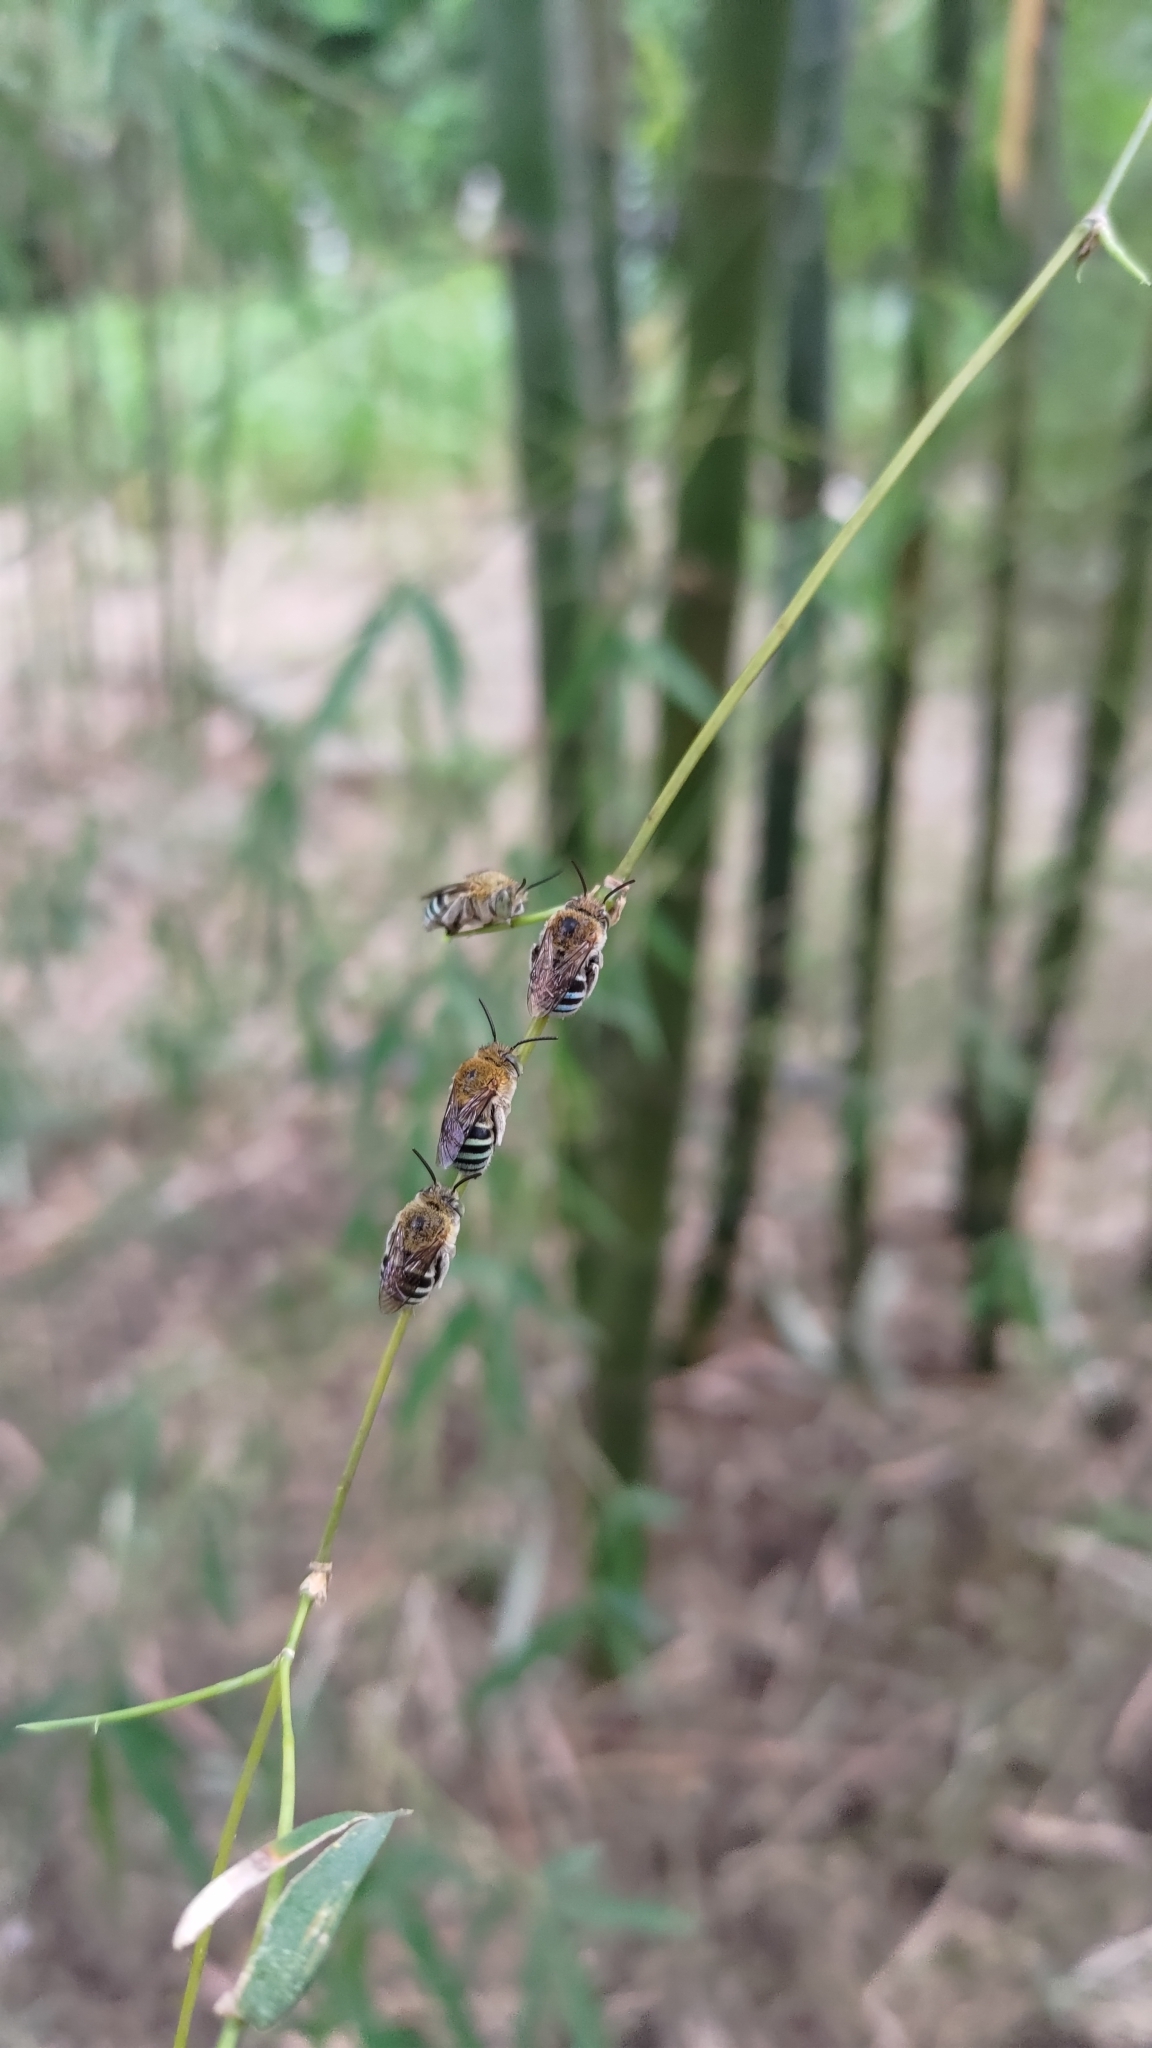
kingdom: Animalia
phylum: Arthropoda
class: Insecta
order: Hymenoptera
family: Apidae
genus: Amegilla
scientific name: Amegilla calceifera
